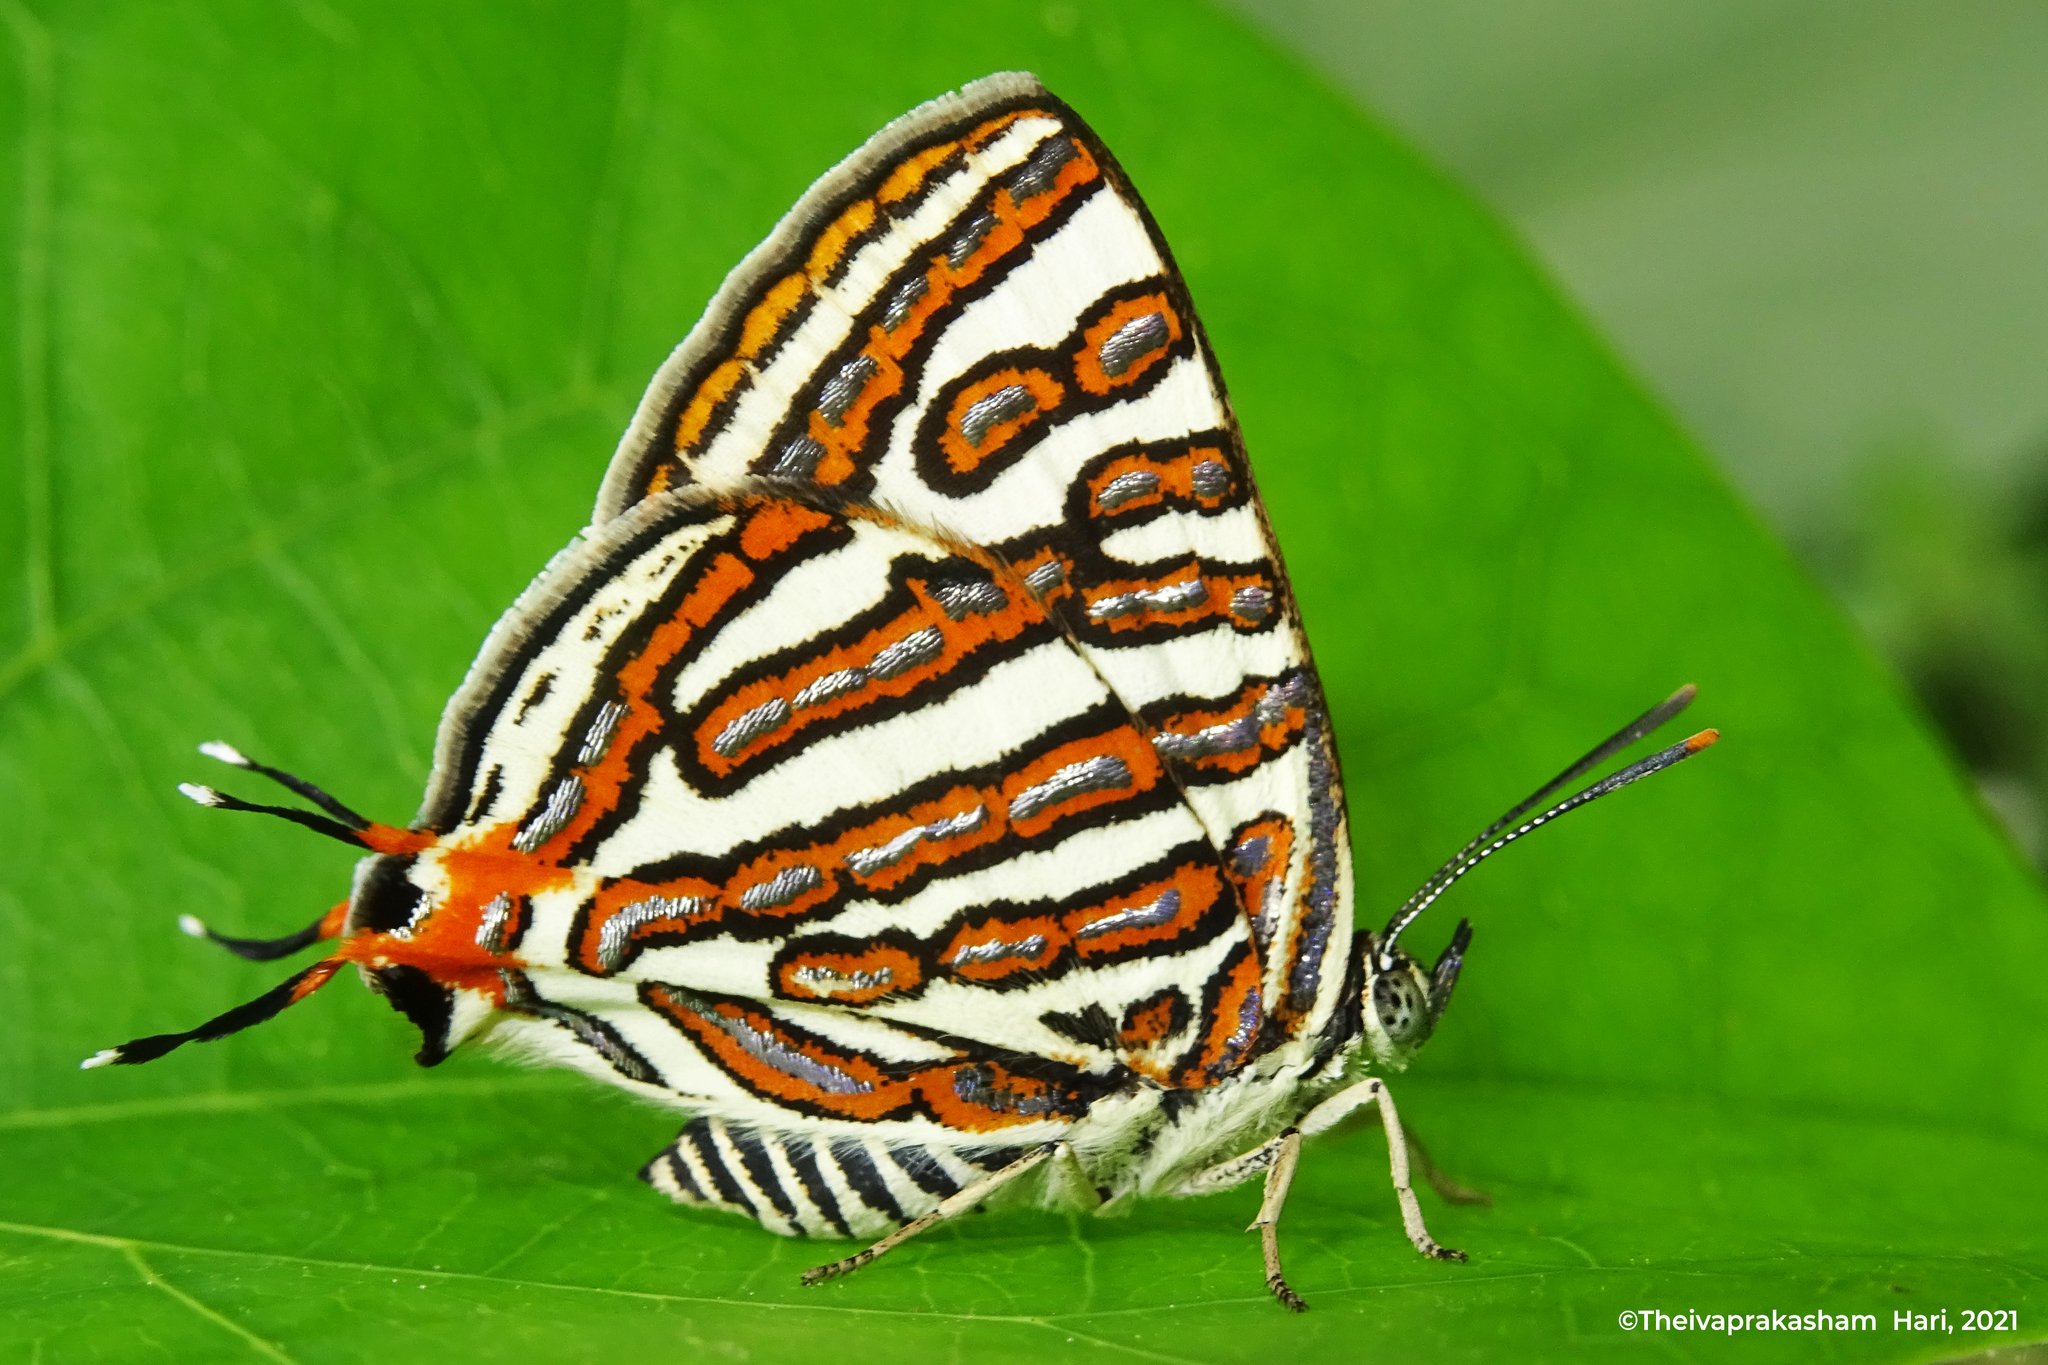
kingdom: Animalia
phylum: Arthropoda
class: Insecta
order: Lepidoptera
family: Lycaenidae
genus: Cigaritis
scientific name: Cigaritis
